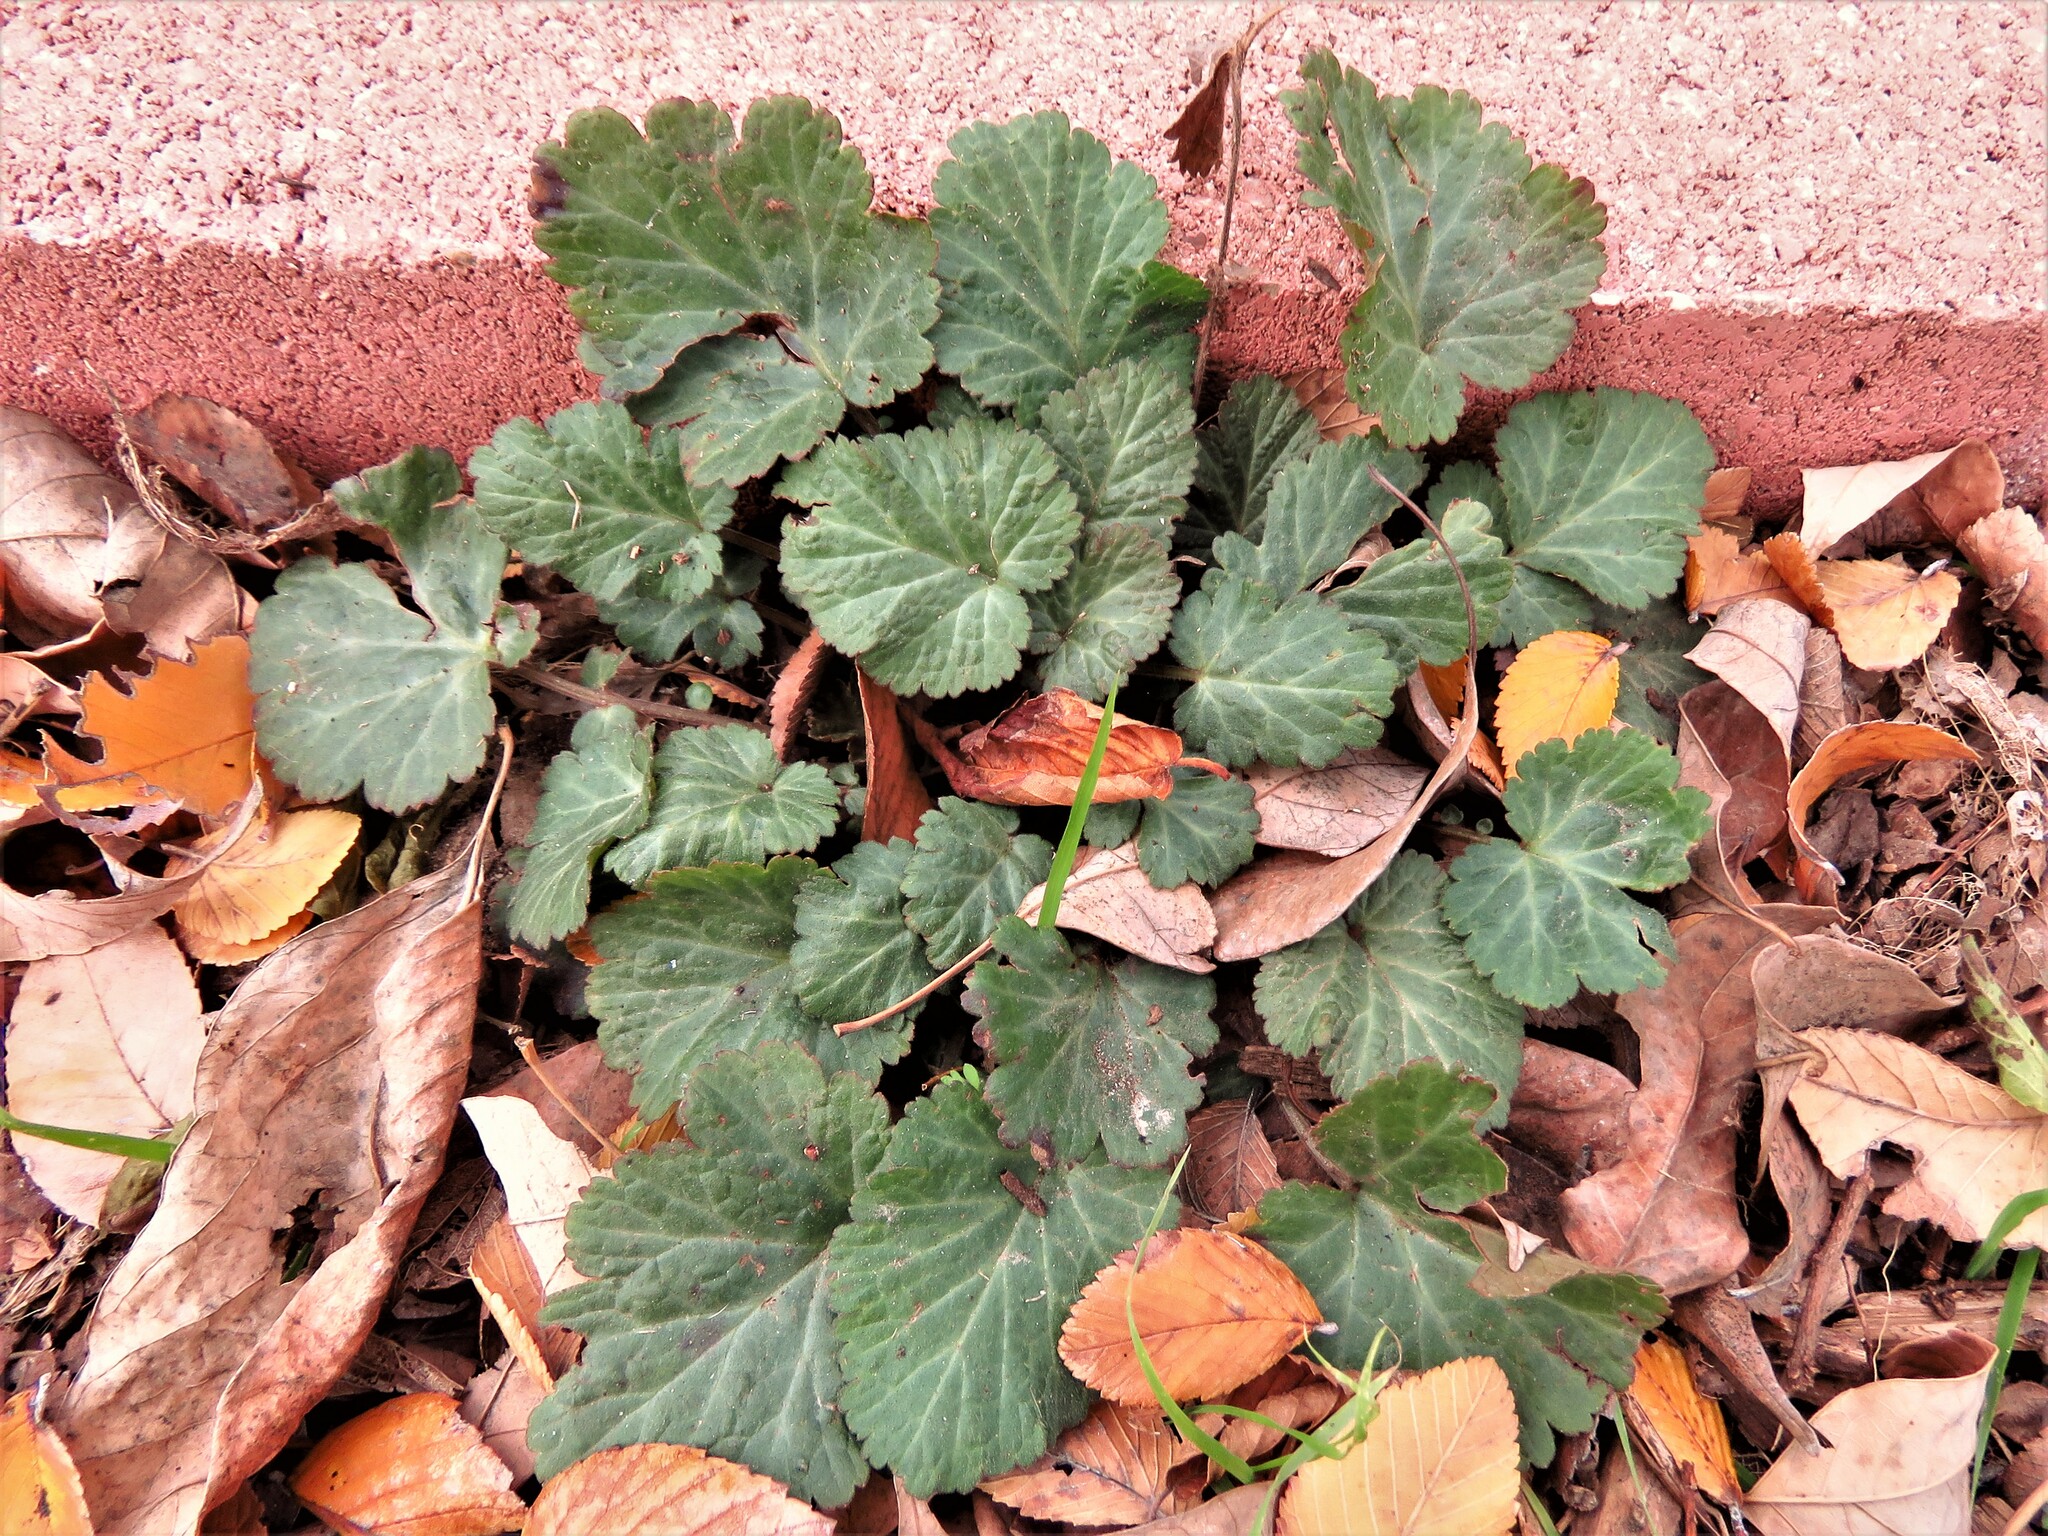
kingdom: Plantae
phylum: Tracheophyta
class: Magnoliopsida
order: Rosales
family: Rosaceae
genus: Geum
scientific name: Geum canadense
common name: White avens
